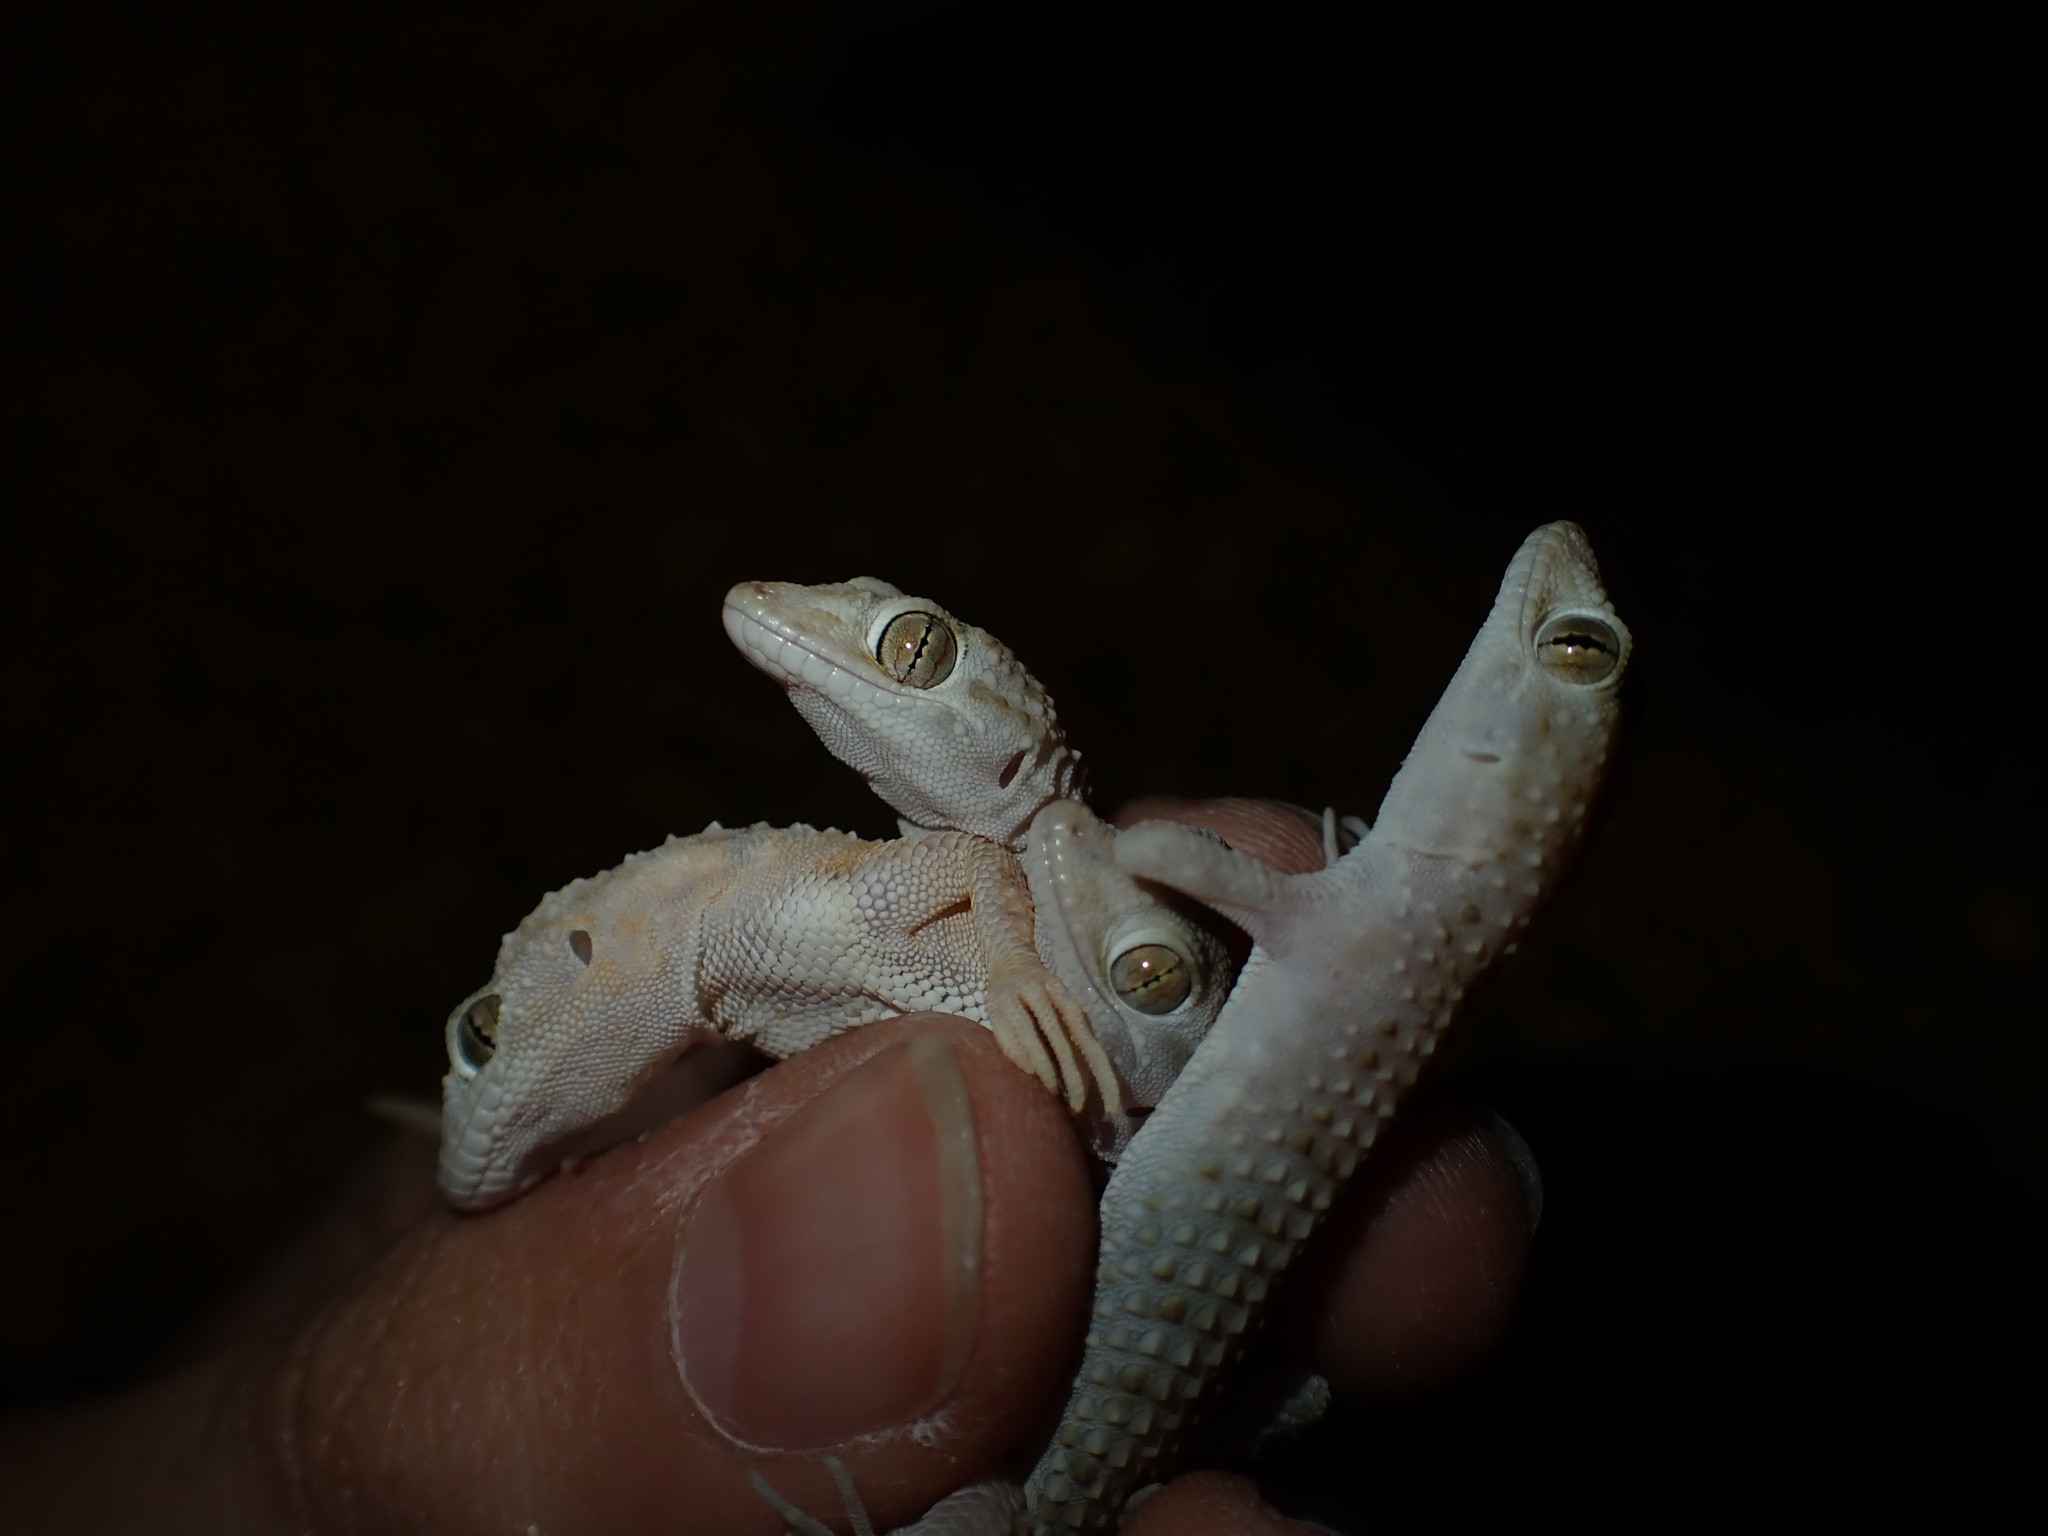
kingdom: Animalia
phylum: Chordata
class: Squamata
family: Gekkonidae
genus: Cyrtopodion
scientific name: Cyrtopodion scabrum
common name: Rough-tailed gecko
